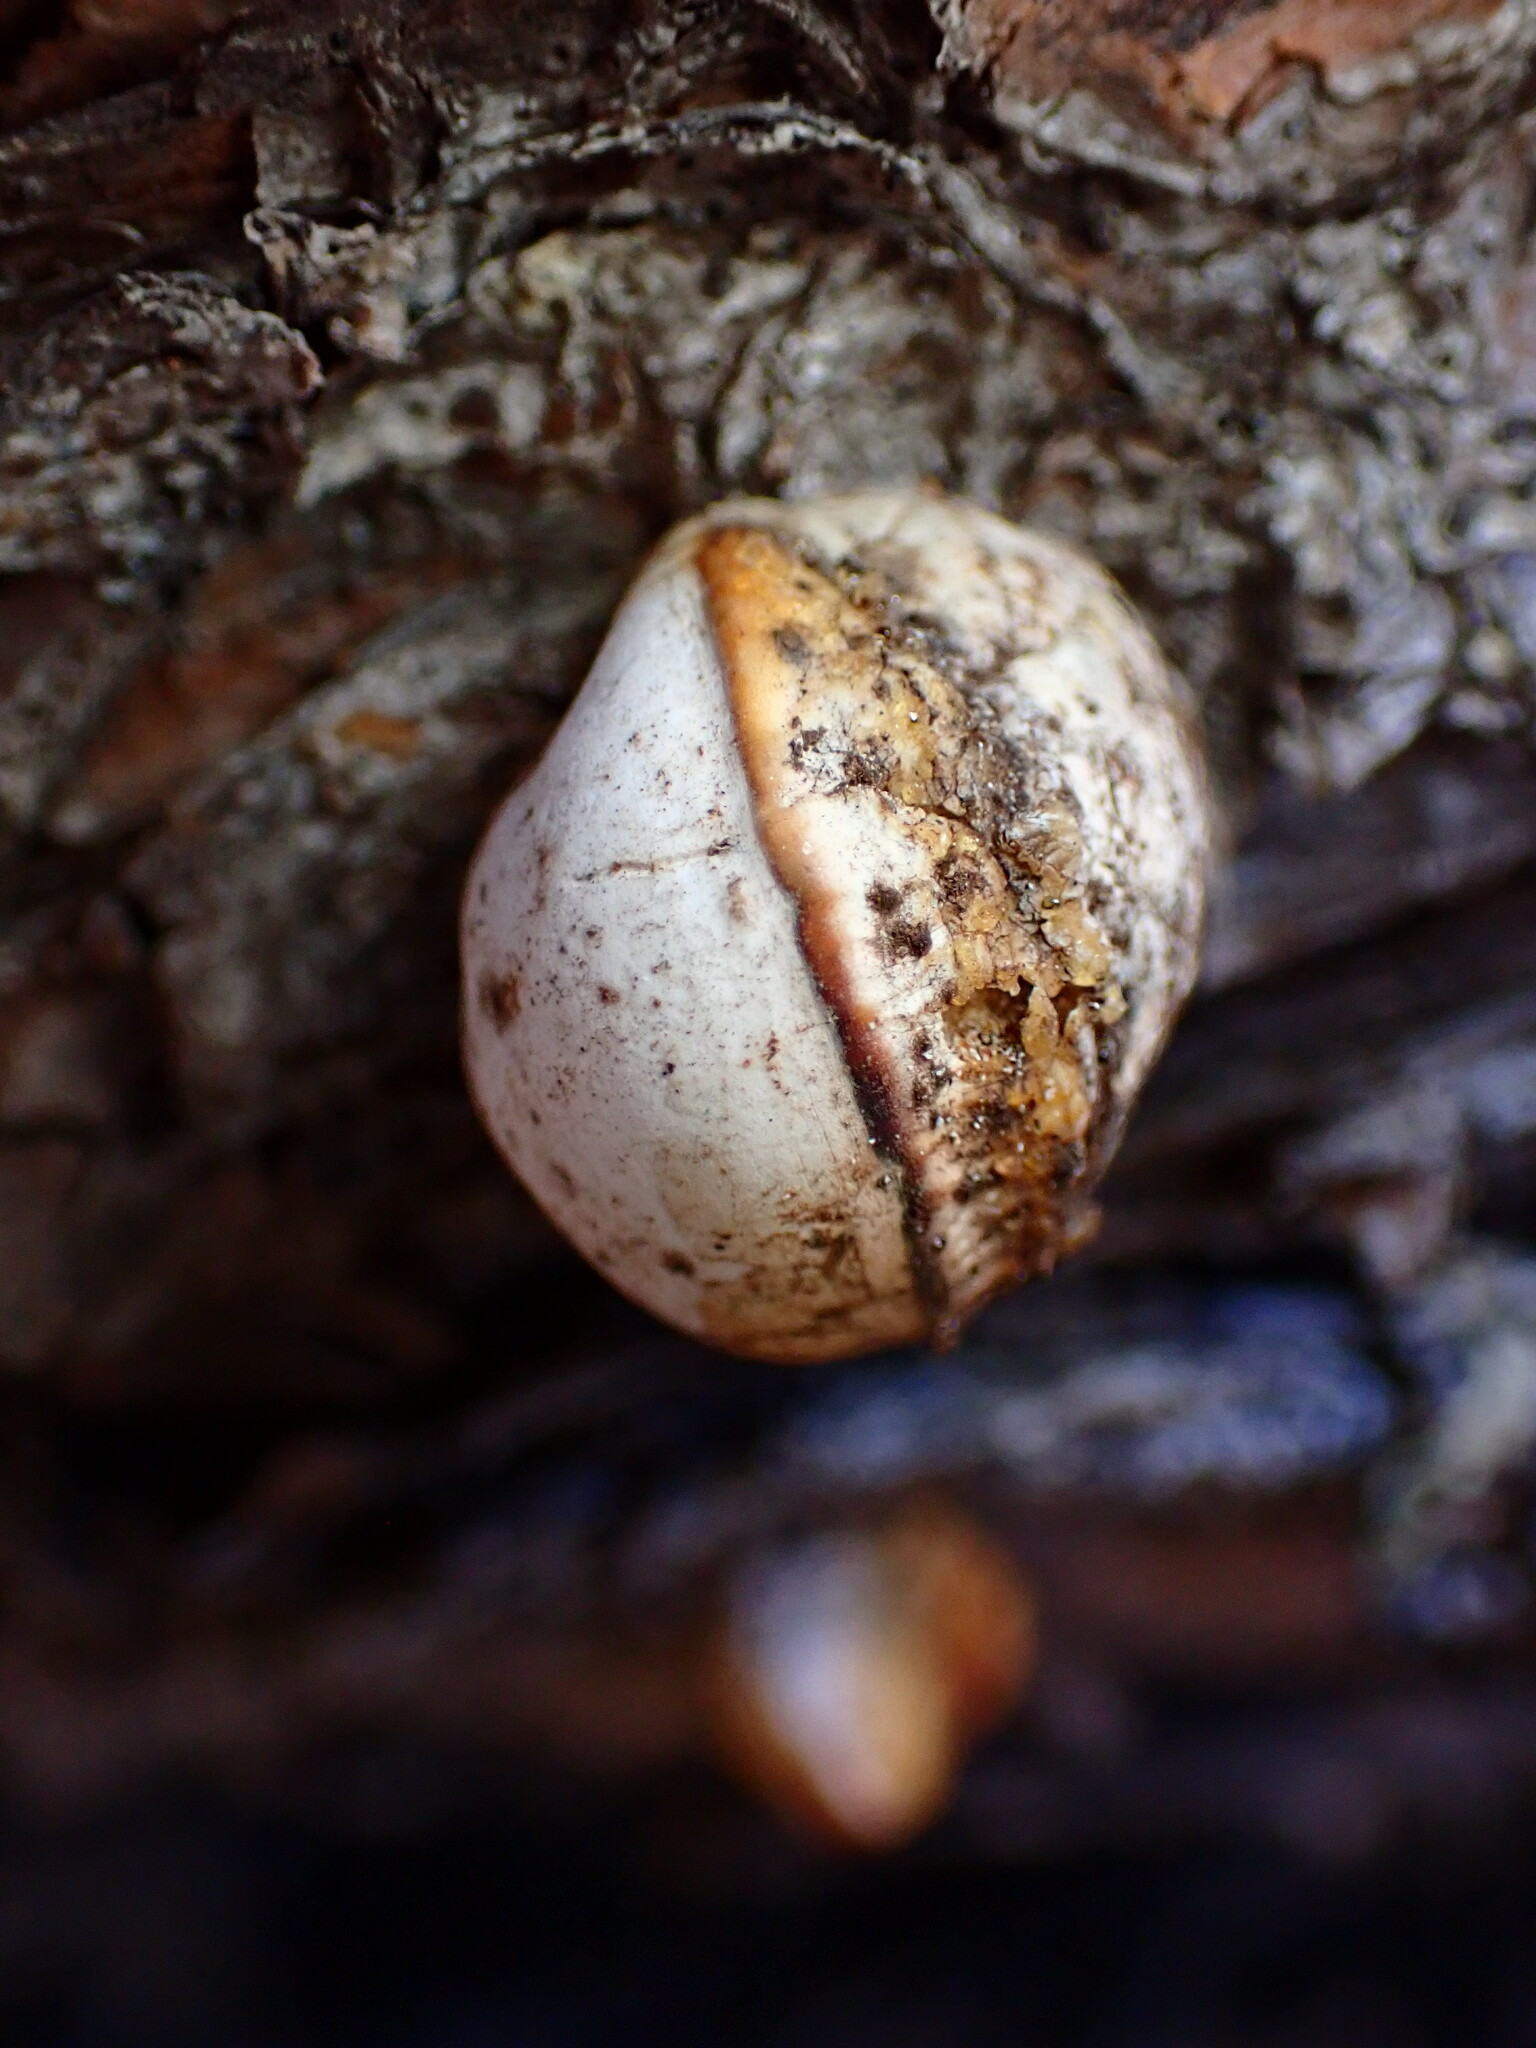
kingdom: Fungi
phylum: Basidiomycota
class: Agaricomycetes
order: Polyporales
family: Polyporaceae
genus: Cryptoporus
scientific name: Cryptoporus volvatus
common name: Veiled polypore
